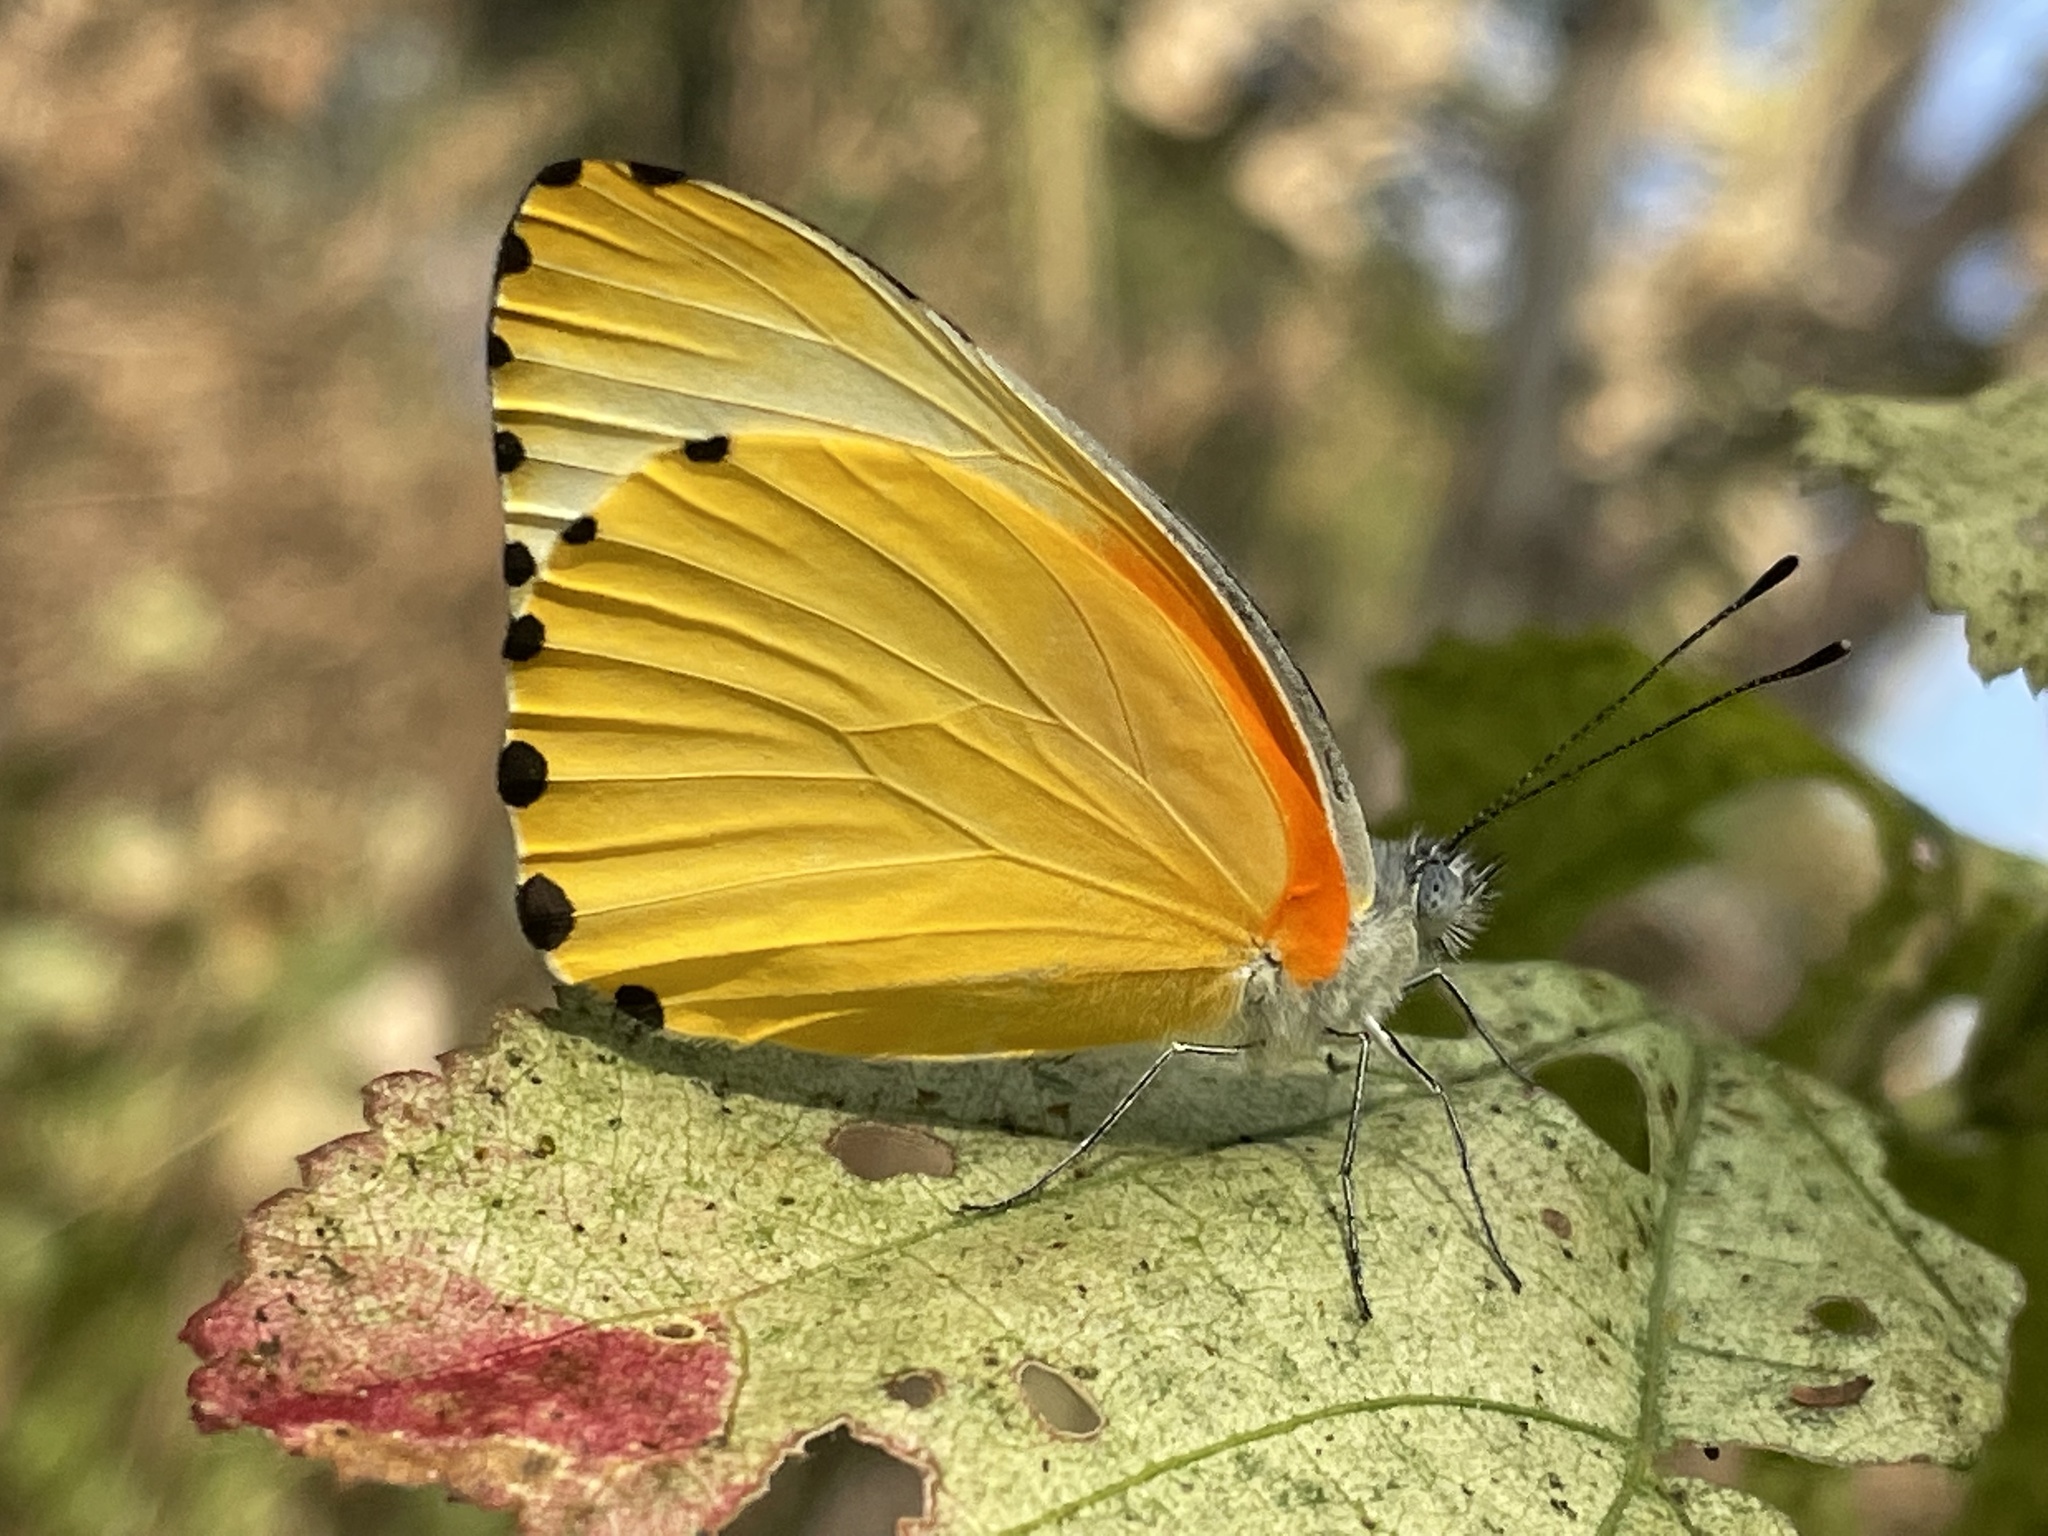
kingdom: Animalia
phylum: Arthropoda
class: Insecta
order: Lepidoptera
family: Pieridae
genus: Mylothris
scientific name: Mylothris agathina
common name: Eastern dotted border
